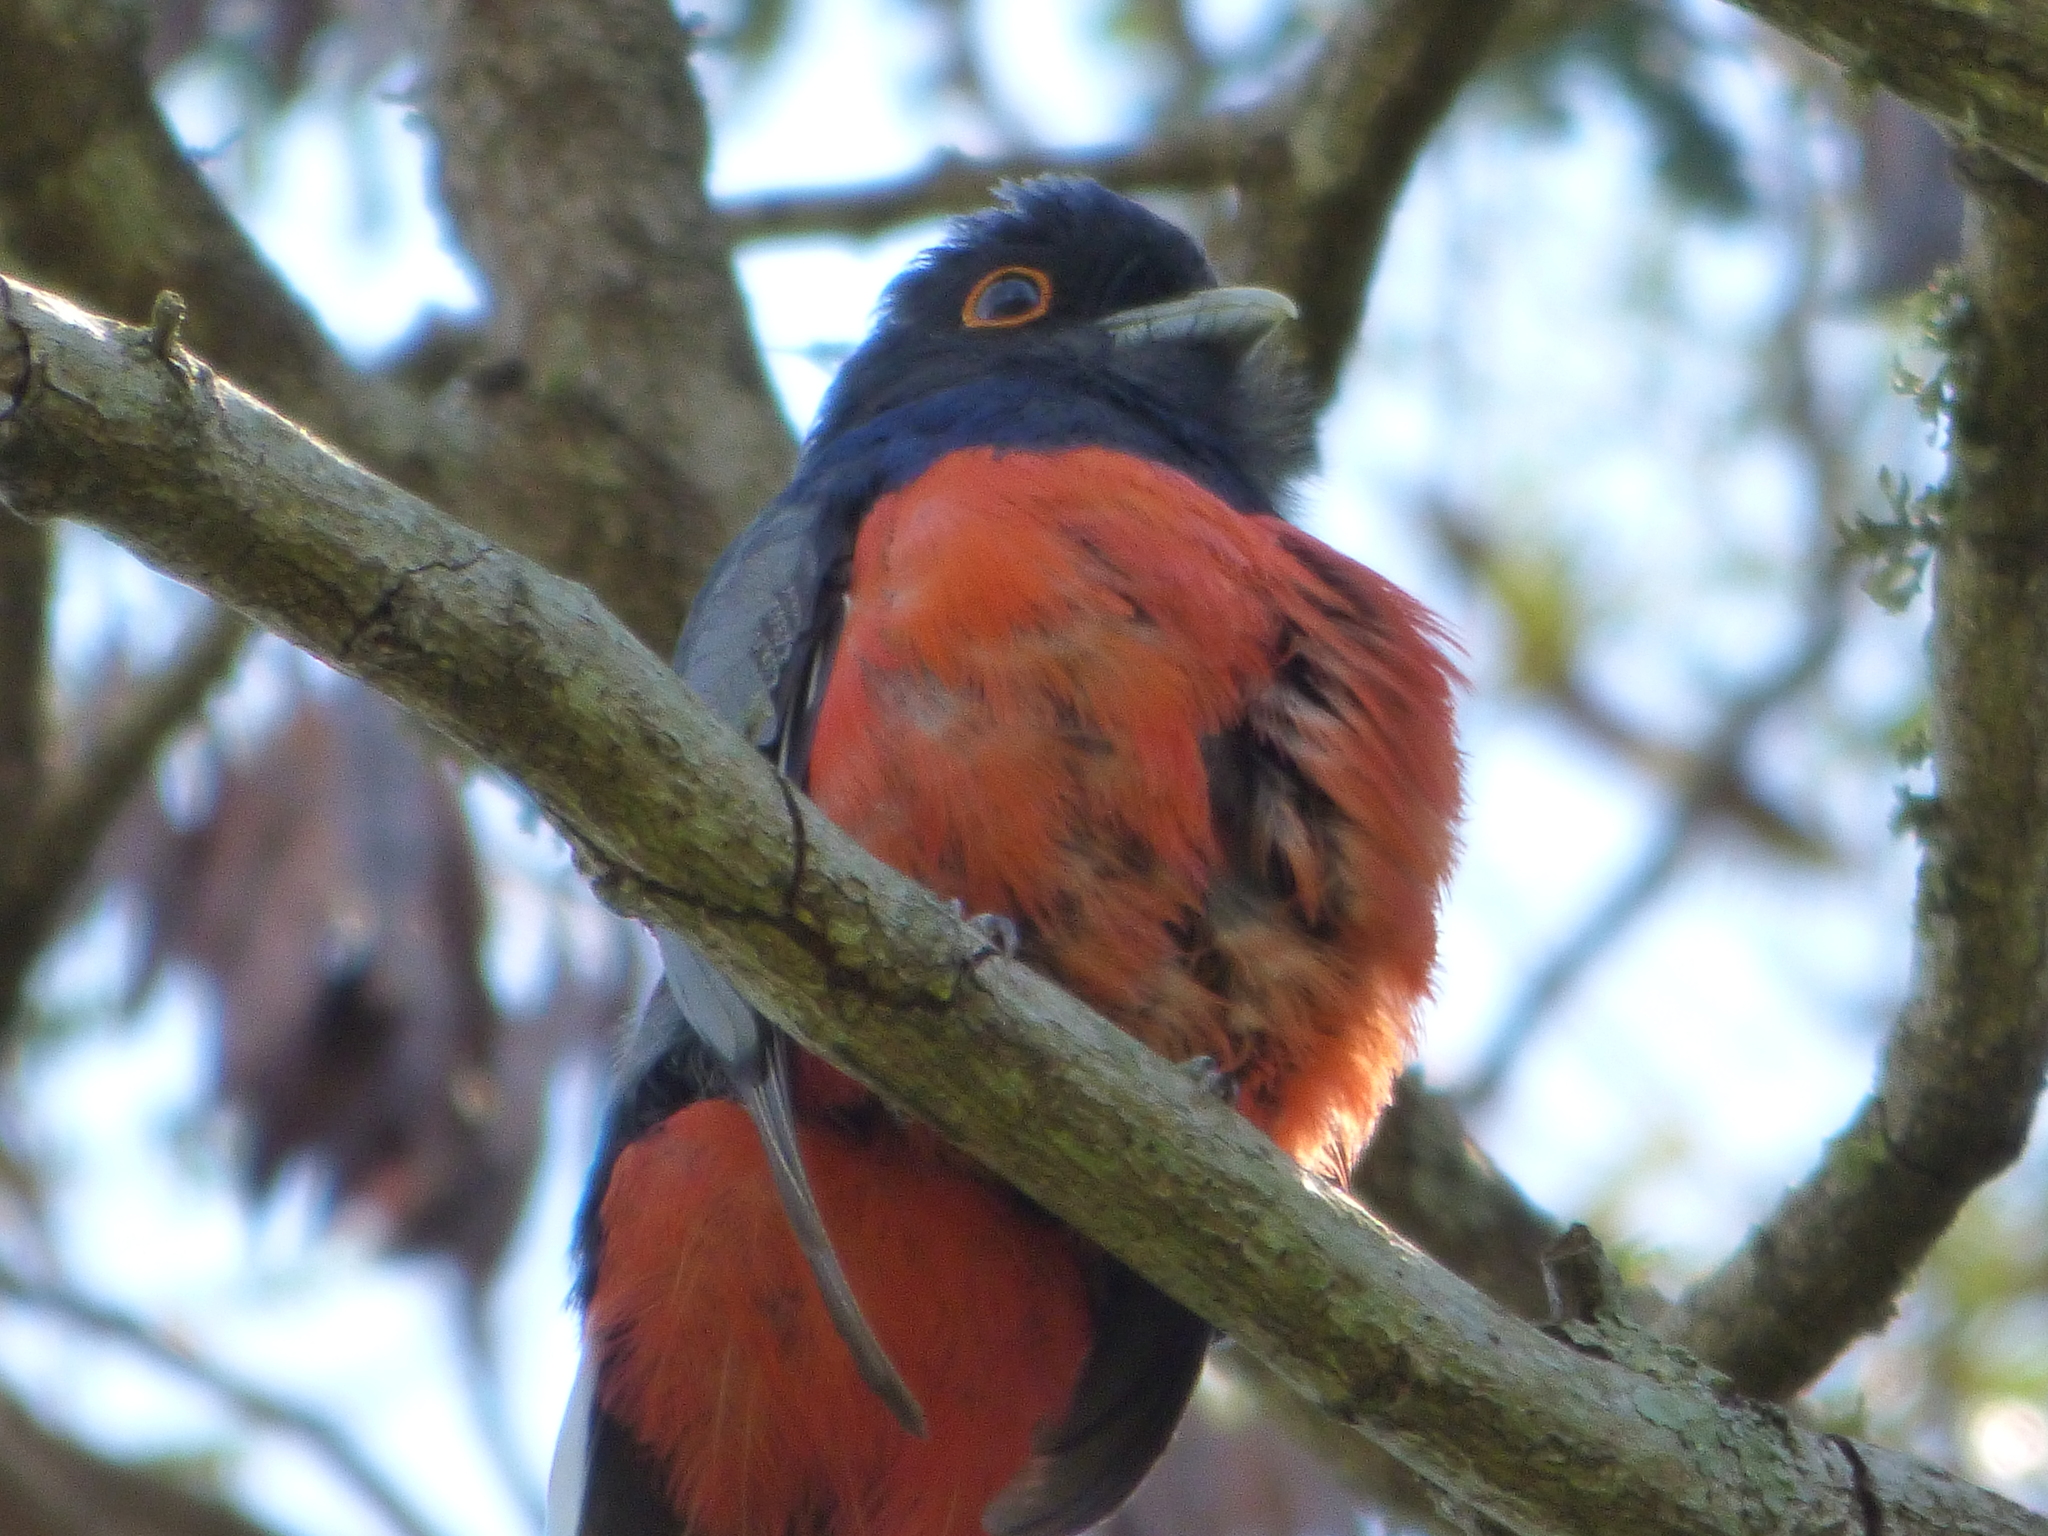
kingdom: Animalia
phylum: Chordata
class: Aves
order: Trogoniformes
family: Trogonidae
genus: Trogon
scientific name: Trogon surrucura
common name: Surucua trogon
